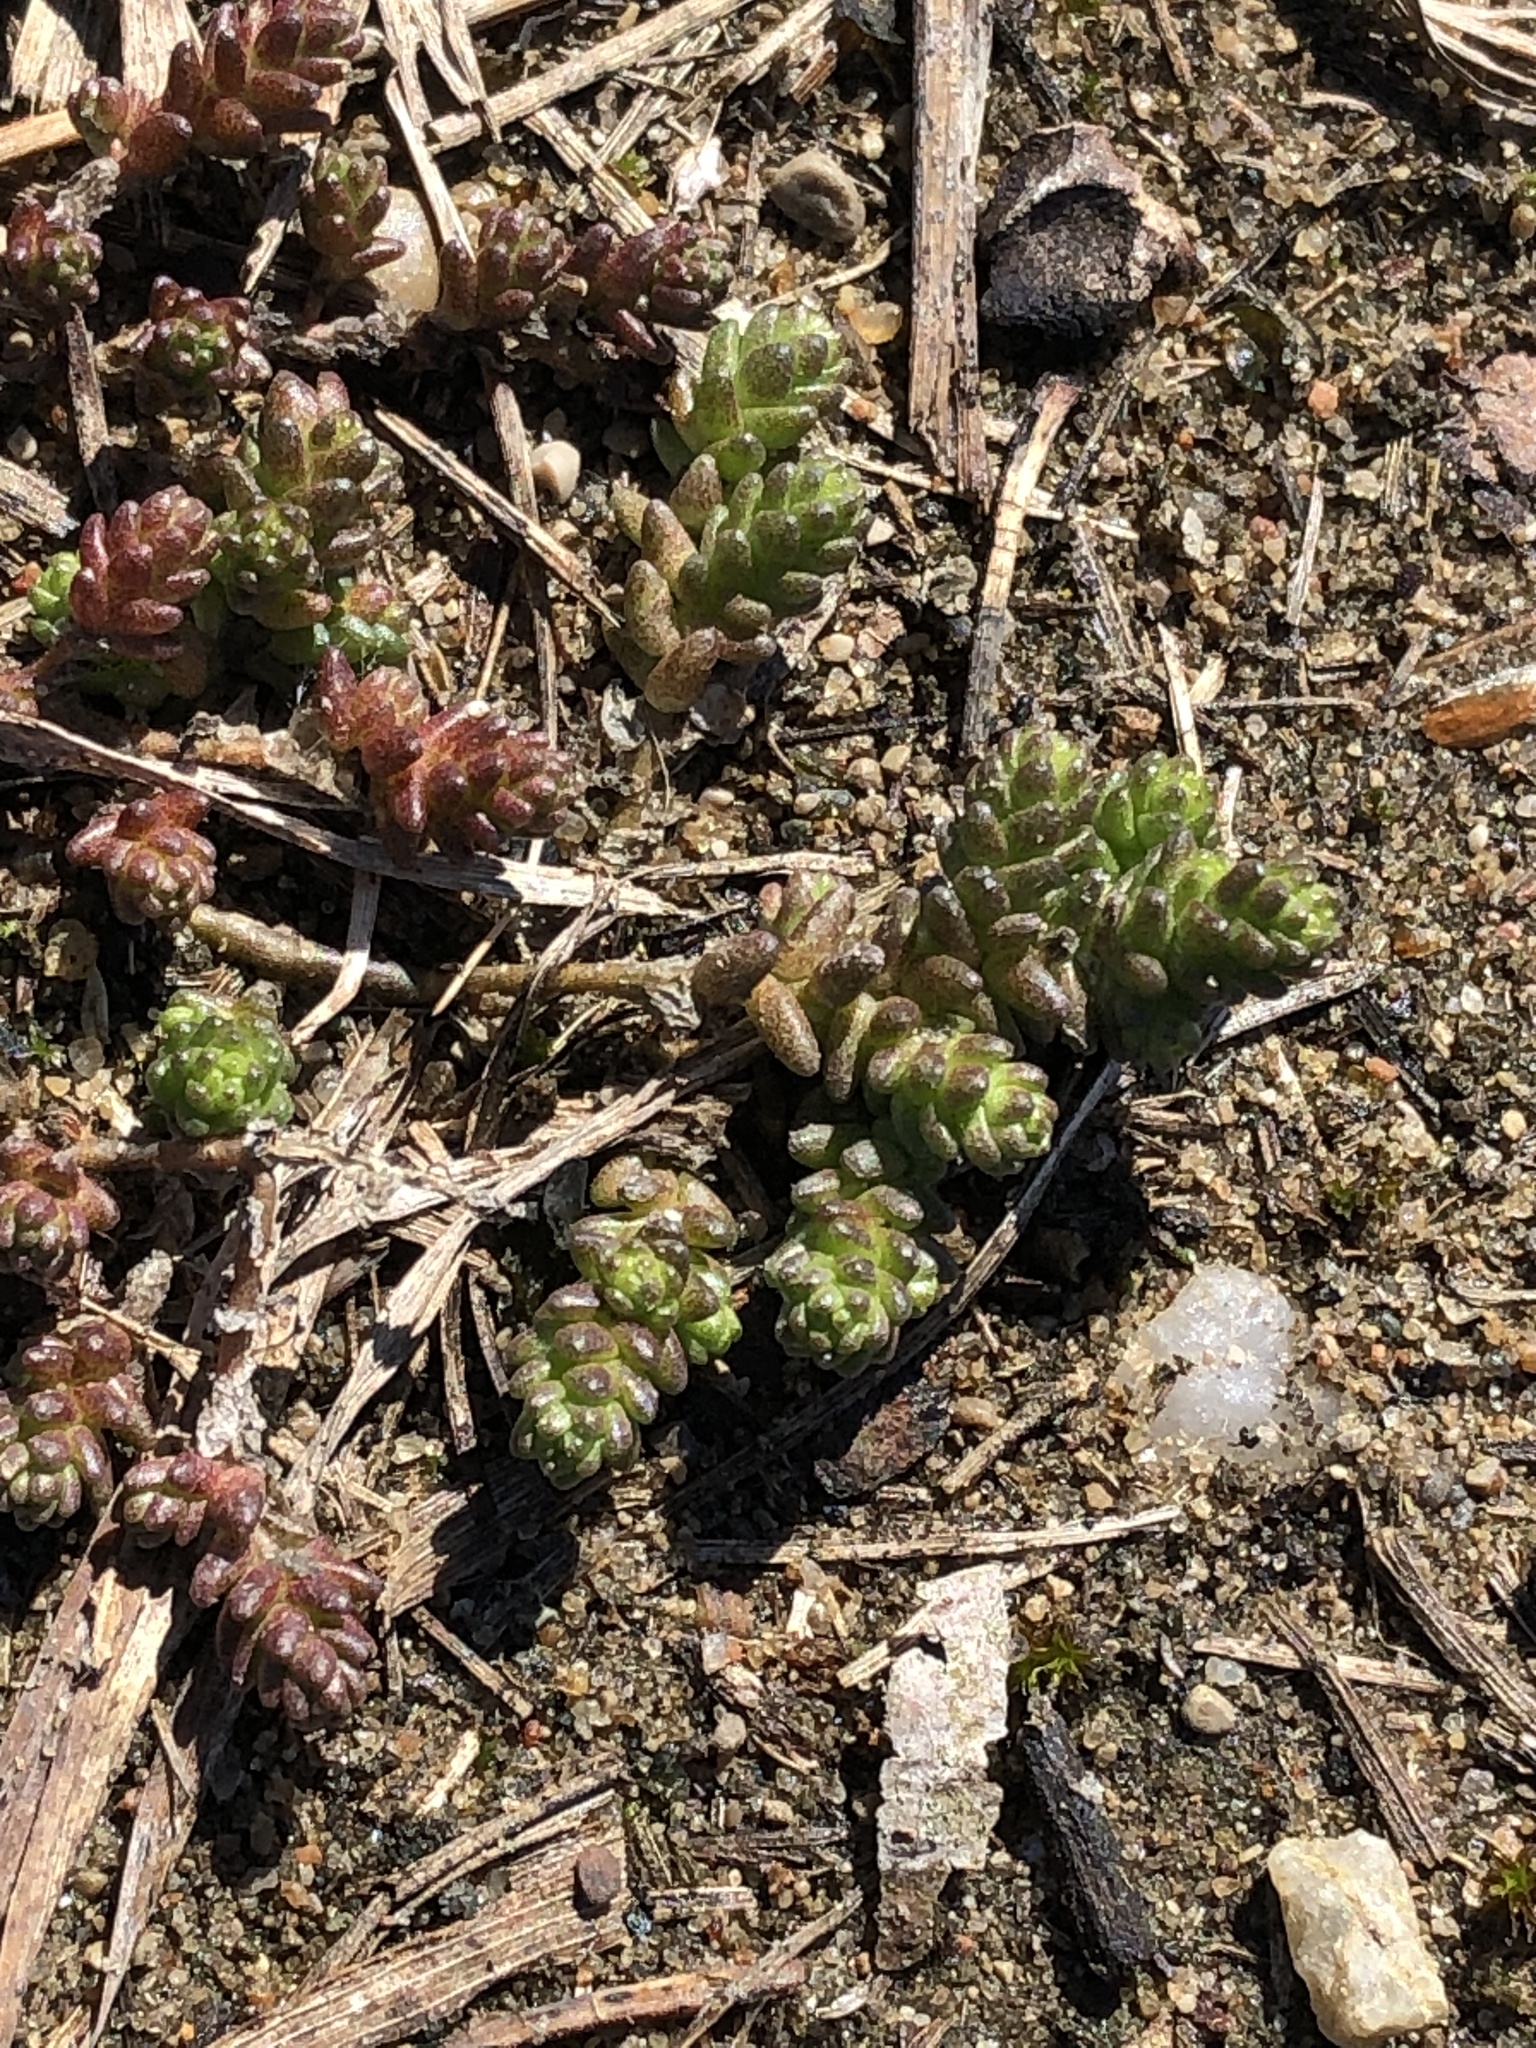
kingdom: Plantae
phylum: Tracheophyta
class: Magnoliopsida
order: Saxifragales
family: Crassulaceae
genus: Sedum
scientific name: Sedum acre
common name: Biting stonecrop
